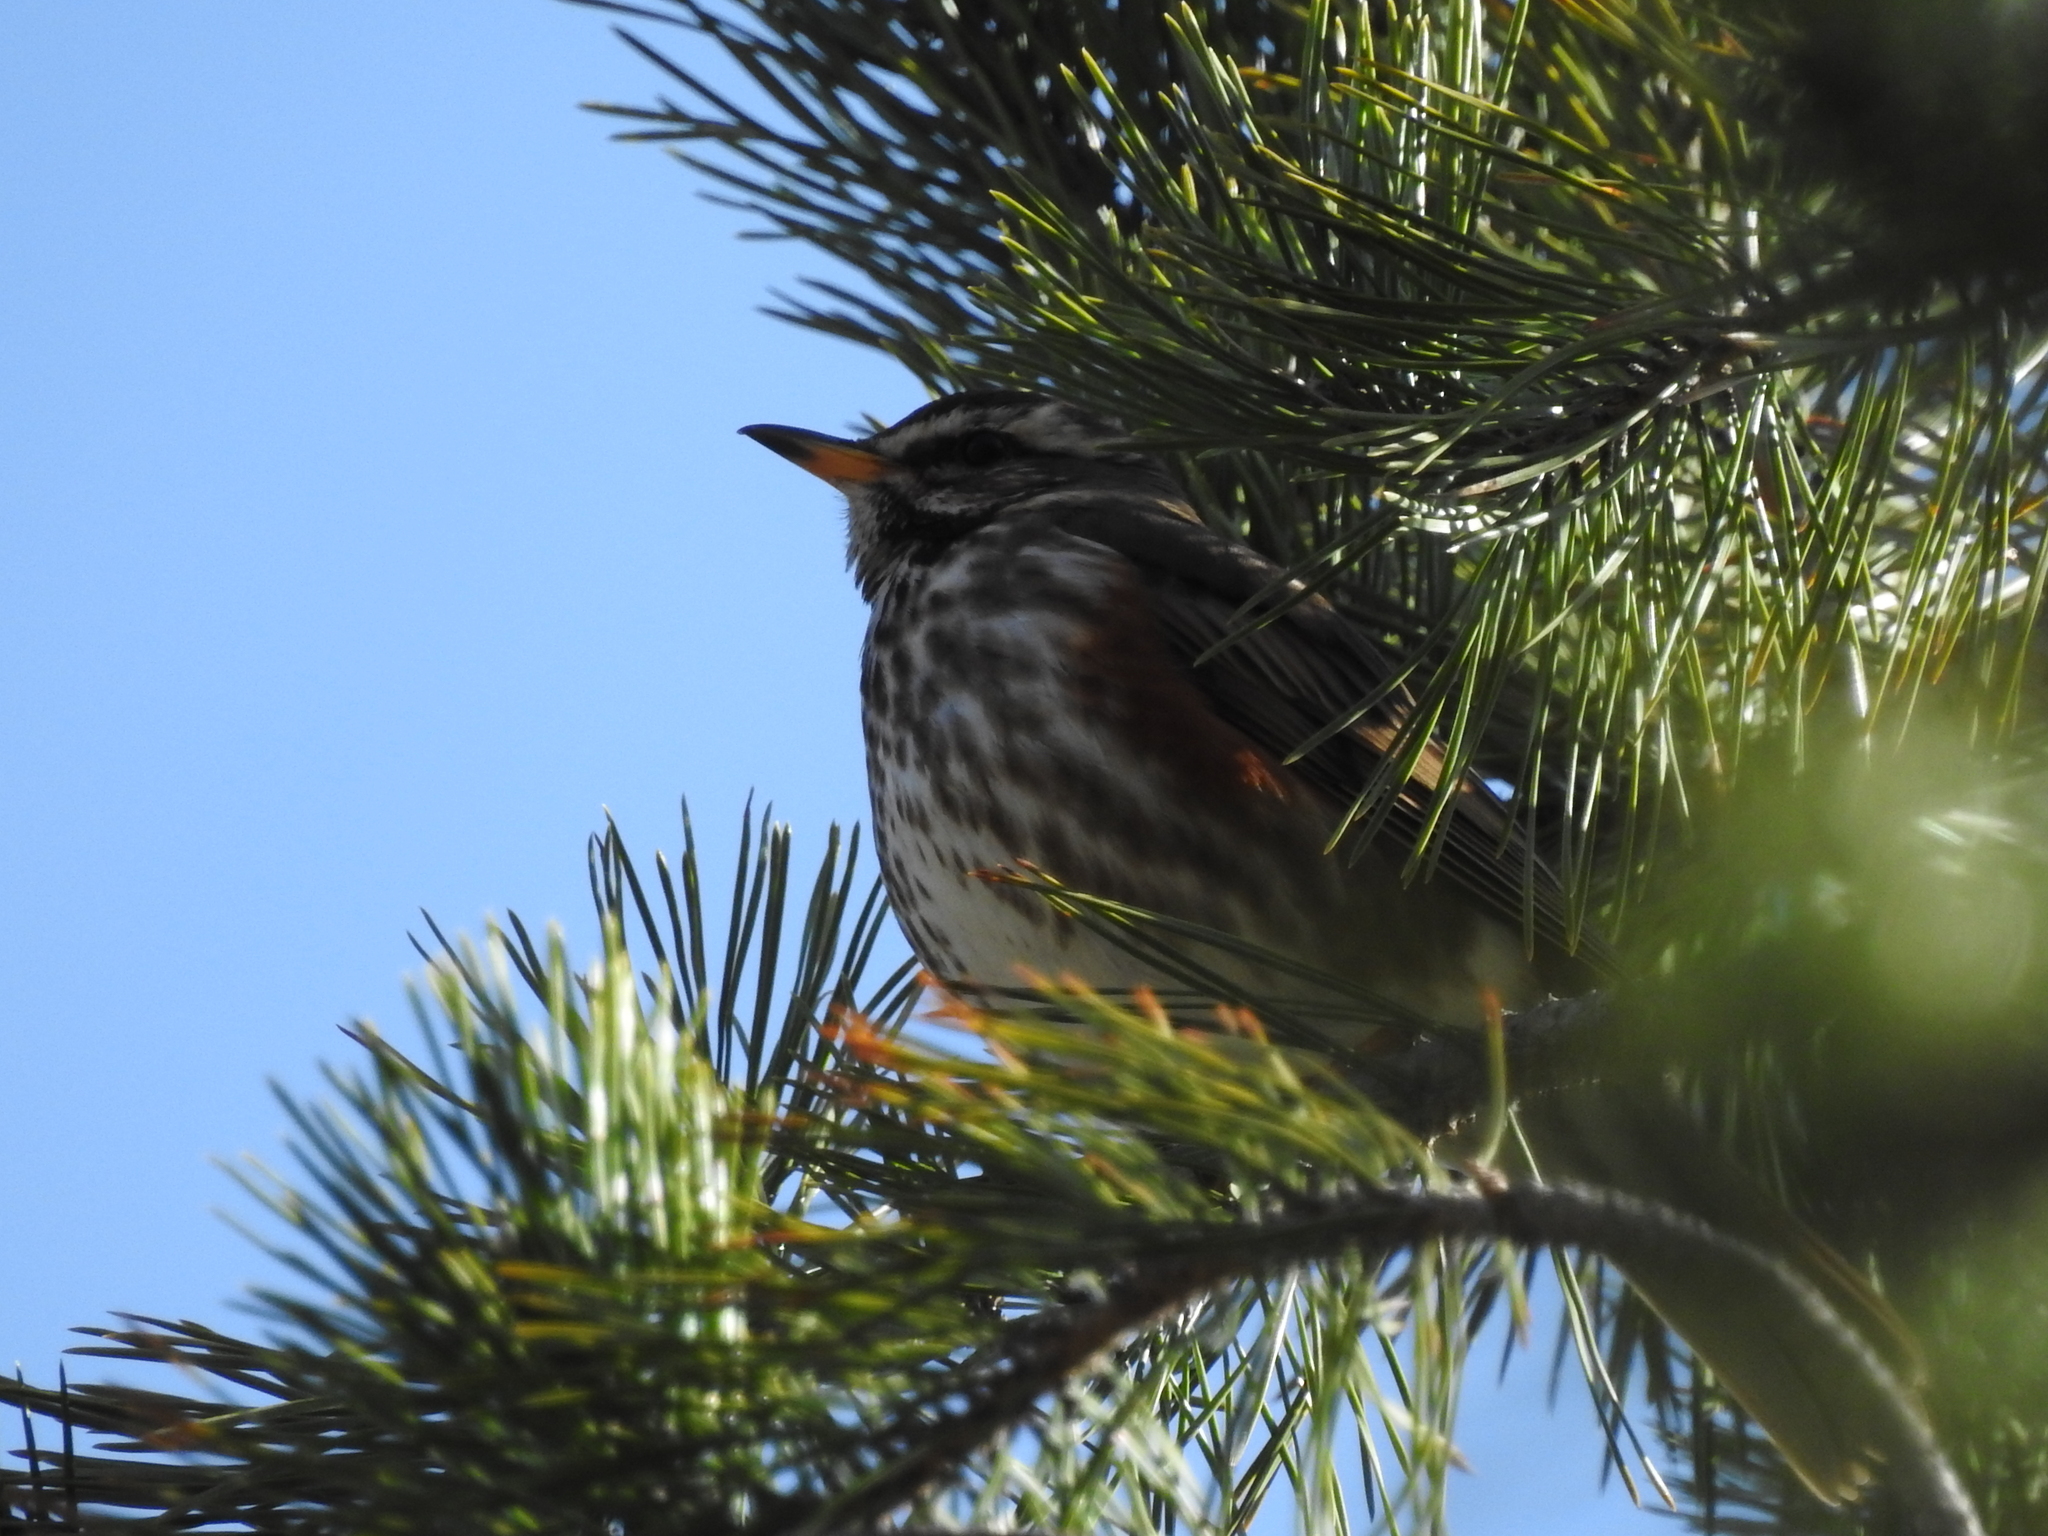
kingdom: Animalia
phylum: Chordata
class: Aves
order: Passeriformes
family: Turdidae
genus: Turdus
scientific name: Turdus iliacus
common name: Redwing
